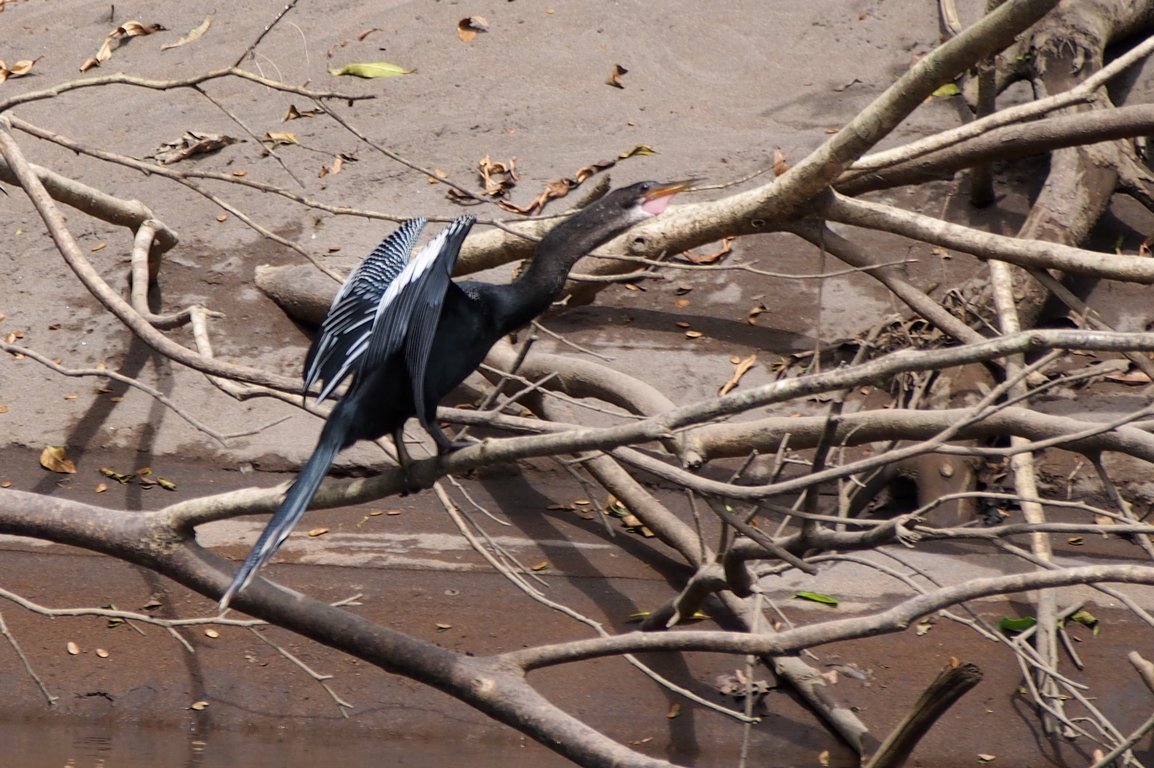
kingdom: Animalia
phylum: Chordata
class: Aves
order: Suliformes
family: Anhingidae
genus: Anhinga
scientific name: Anhinga anhinga
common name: Anhinga
